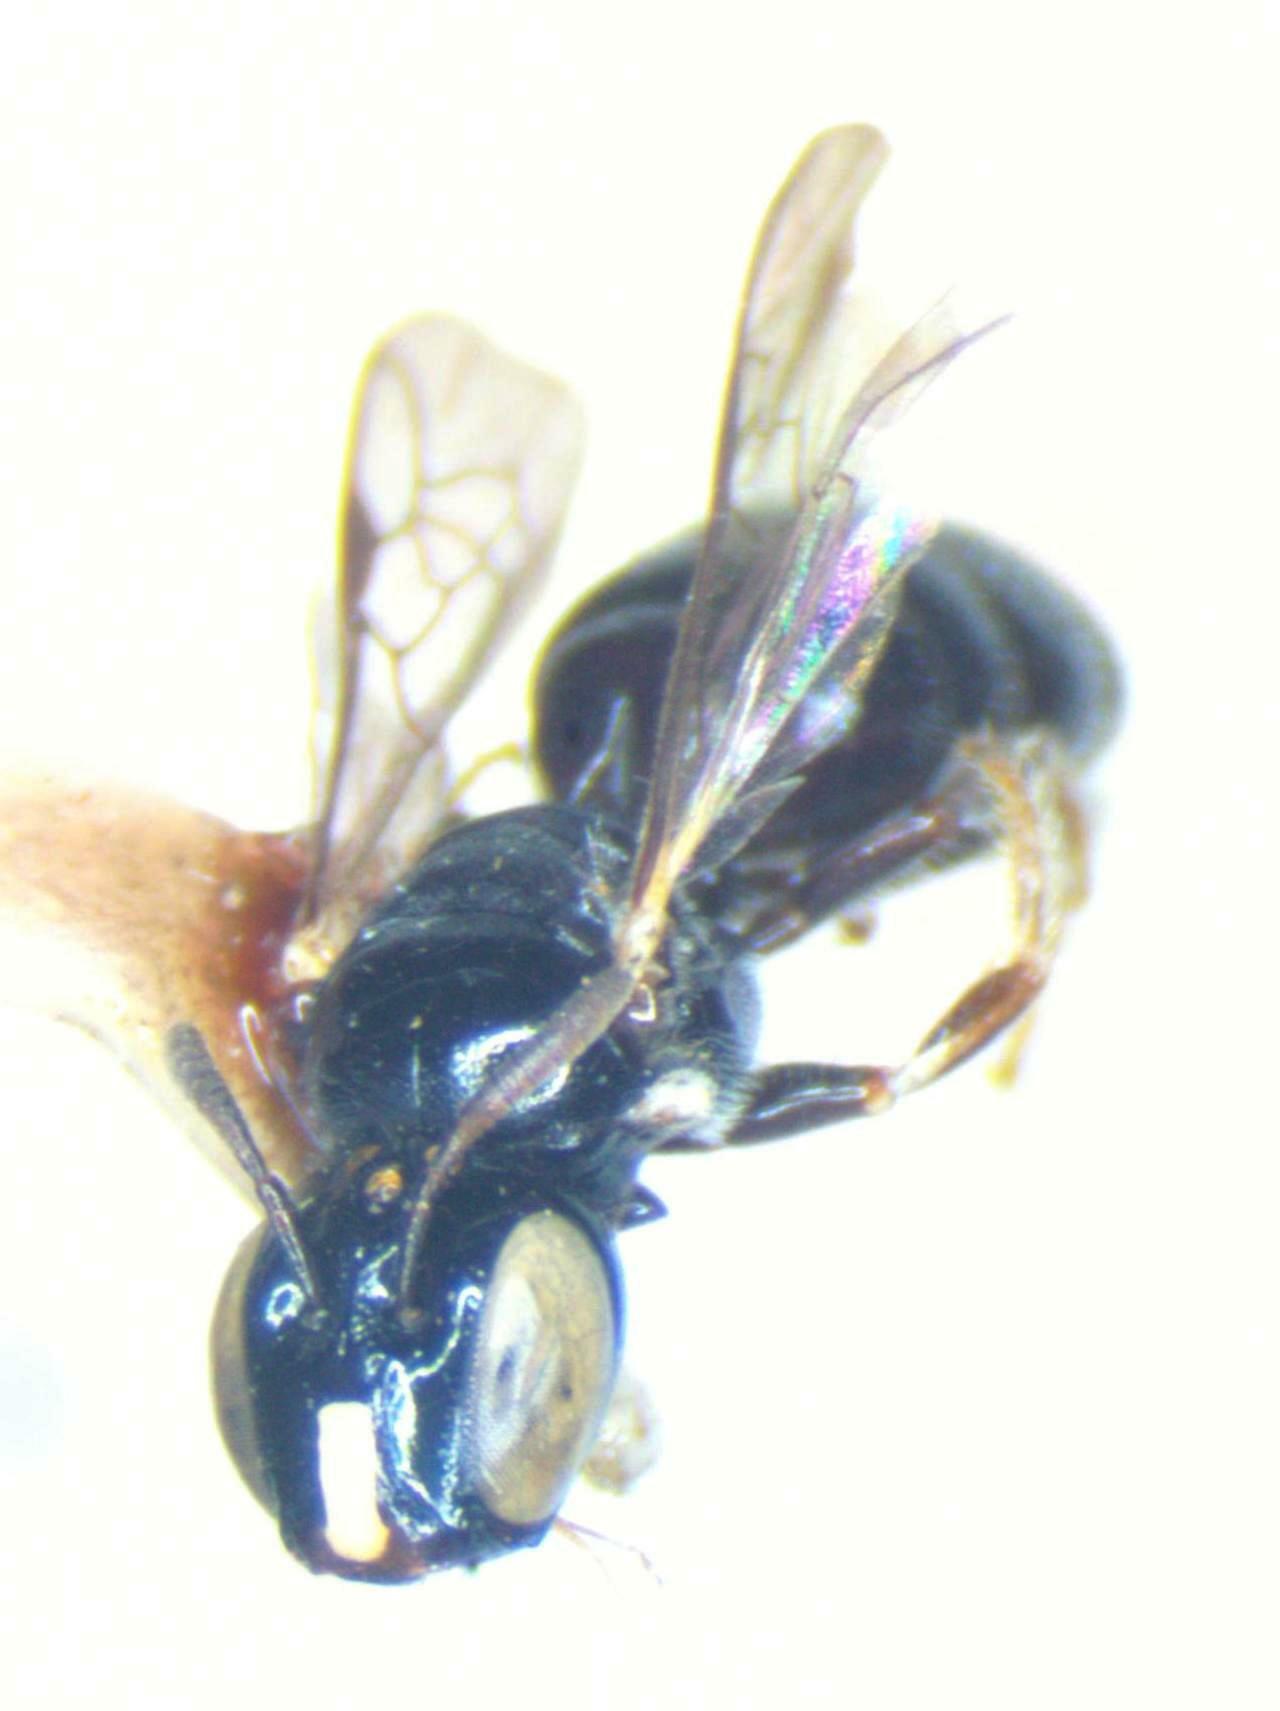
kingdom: Animalia
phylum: Arthropoda
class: Insecta
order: Hymenoptera
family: Apidae
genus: Ceratinula
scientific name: Ceratinula
